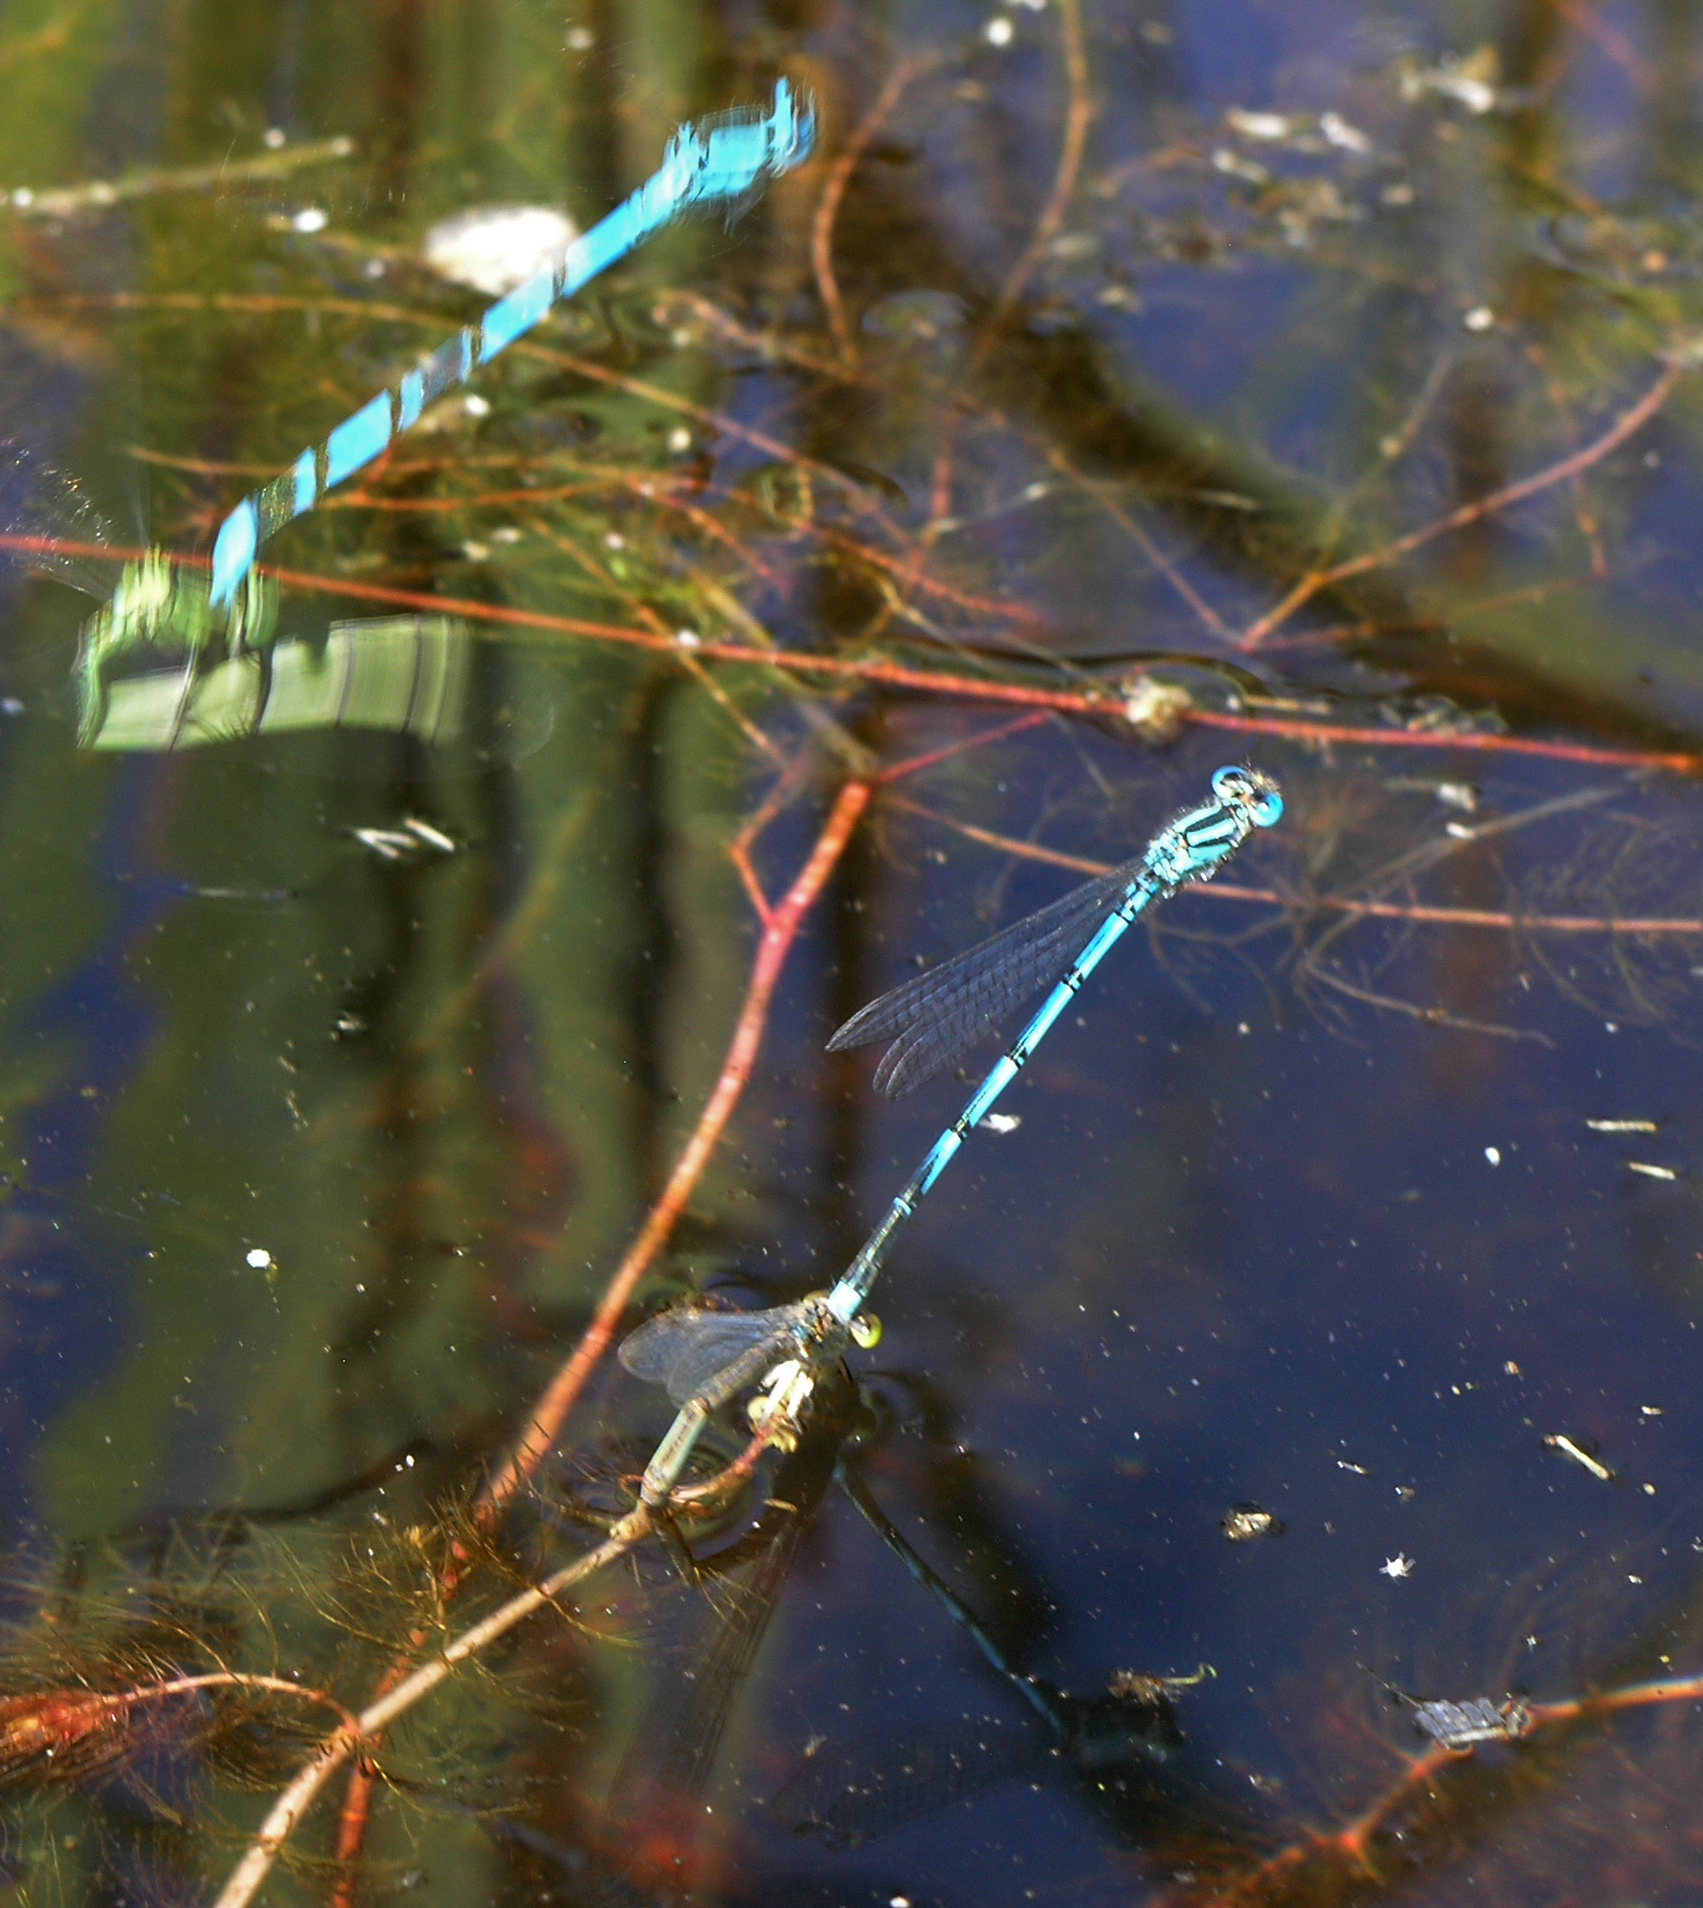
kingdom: Animalia
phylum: Arthropoda
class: Insecta
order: Odonata
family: Coenagrionidae
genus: Erythromma
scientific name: Erythromma lindenii
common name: Blue-eye
